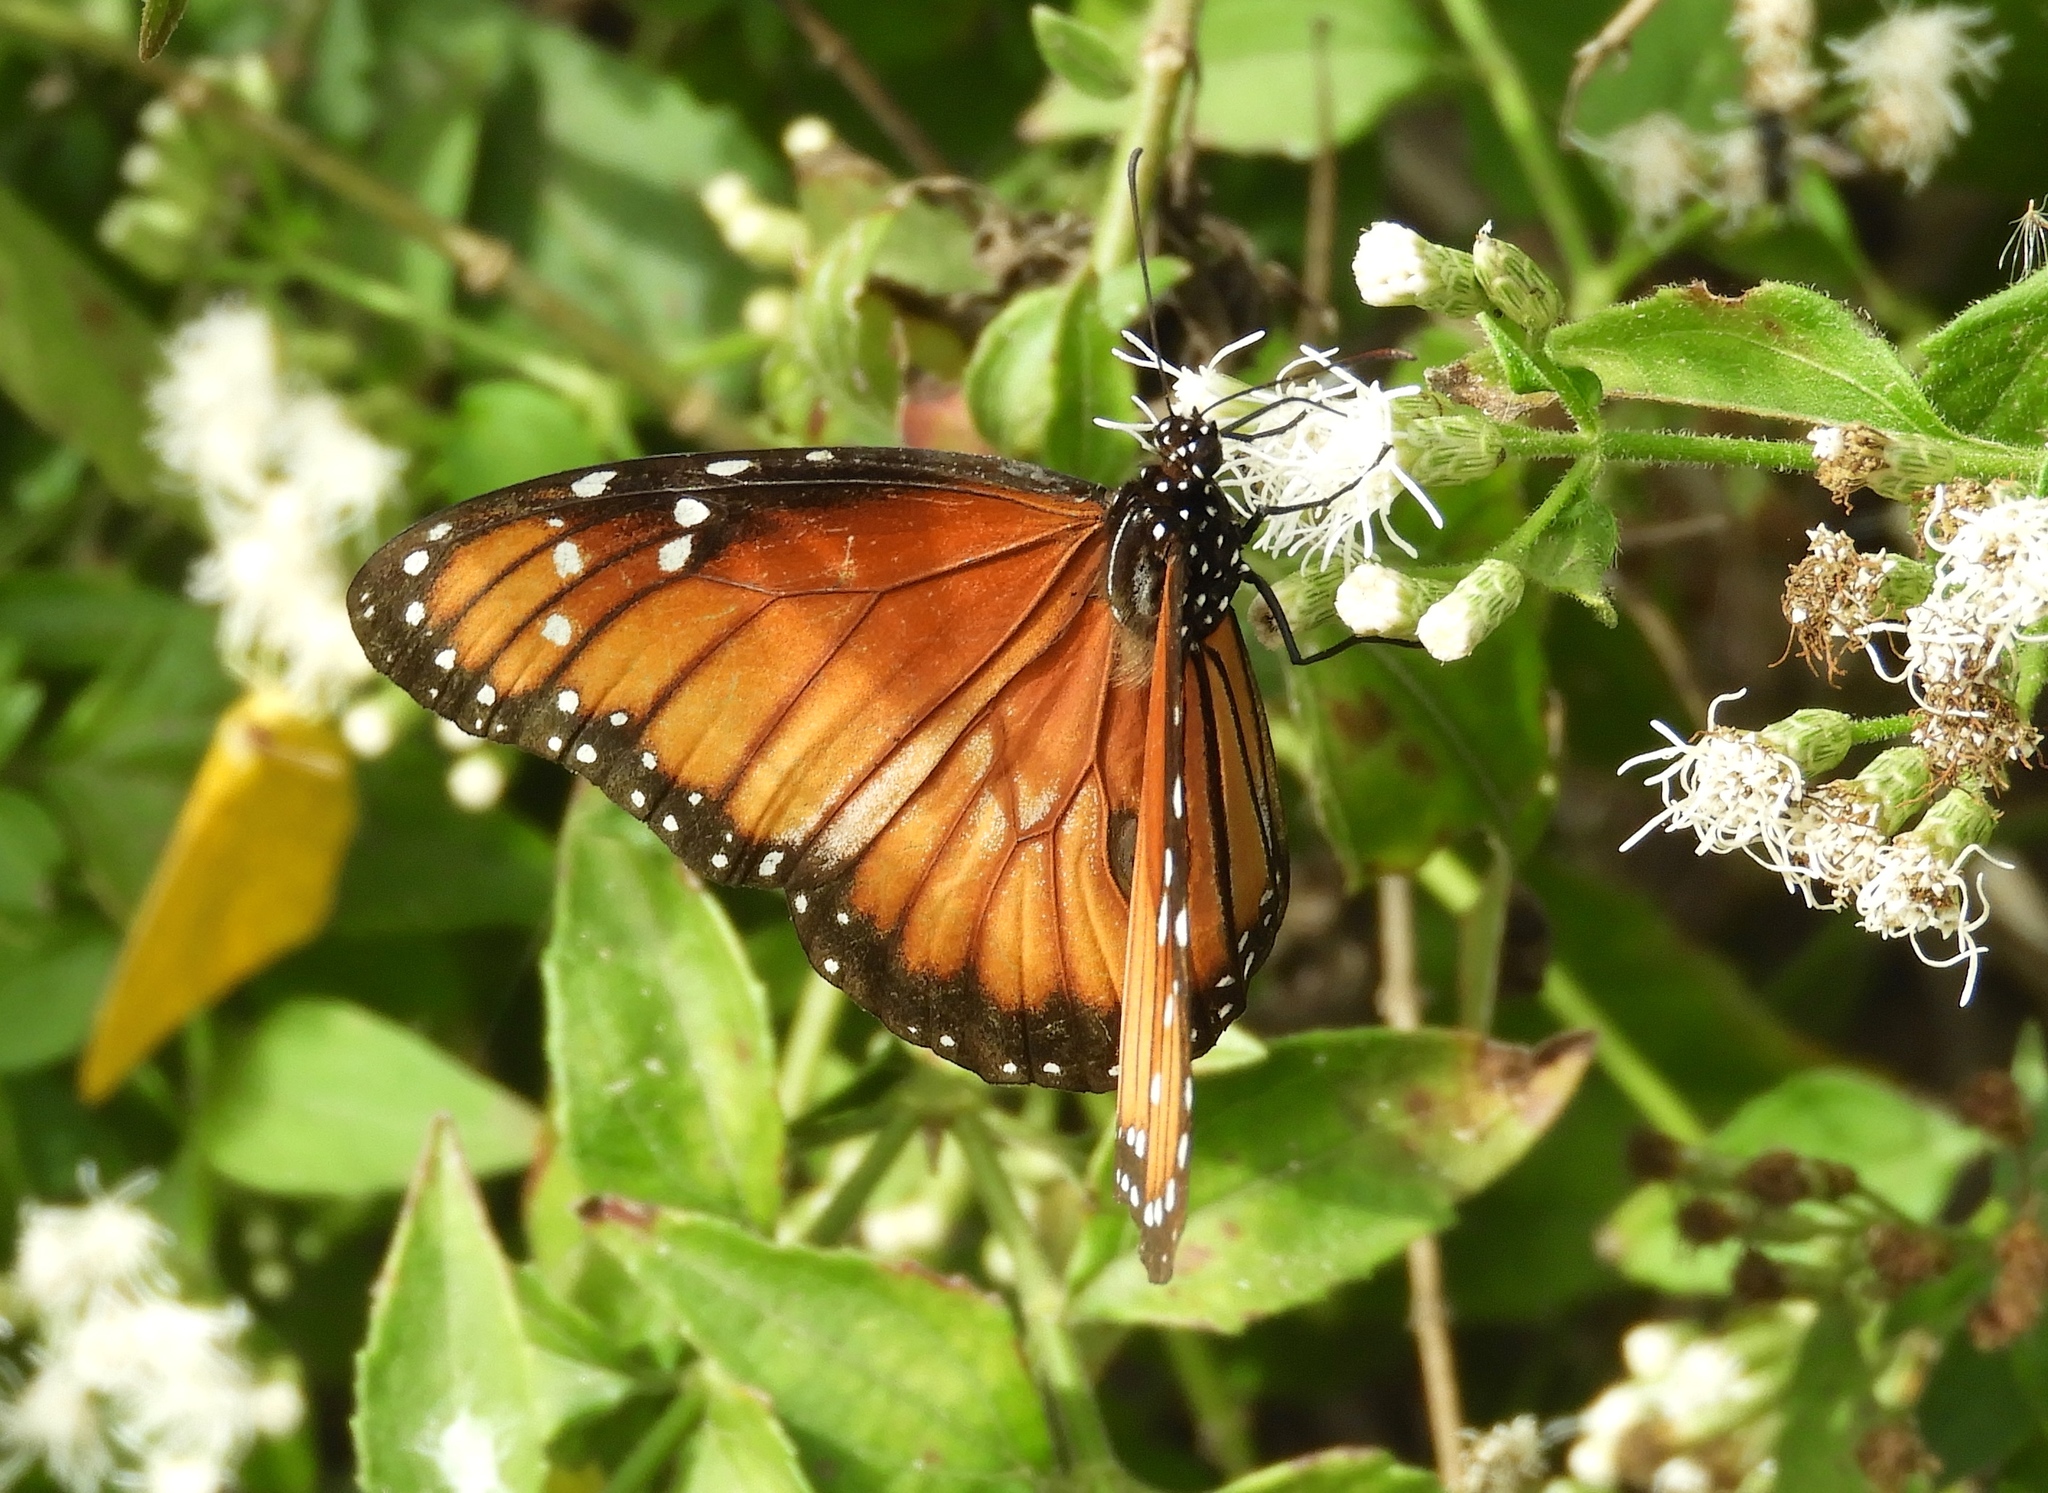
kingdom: Animalia
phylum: Arthropoda
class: Insecta
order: Lepidoptera
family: Nymphalidae
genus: Danaus
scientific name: Danaus eresimus
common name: Soldier
